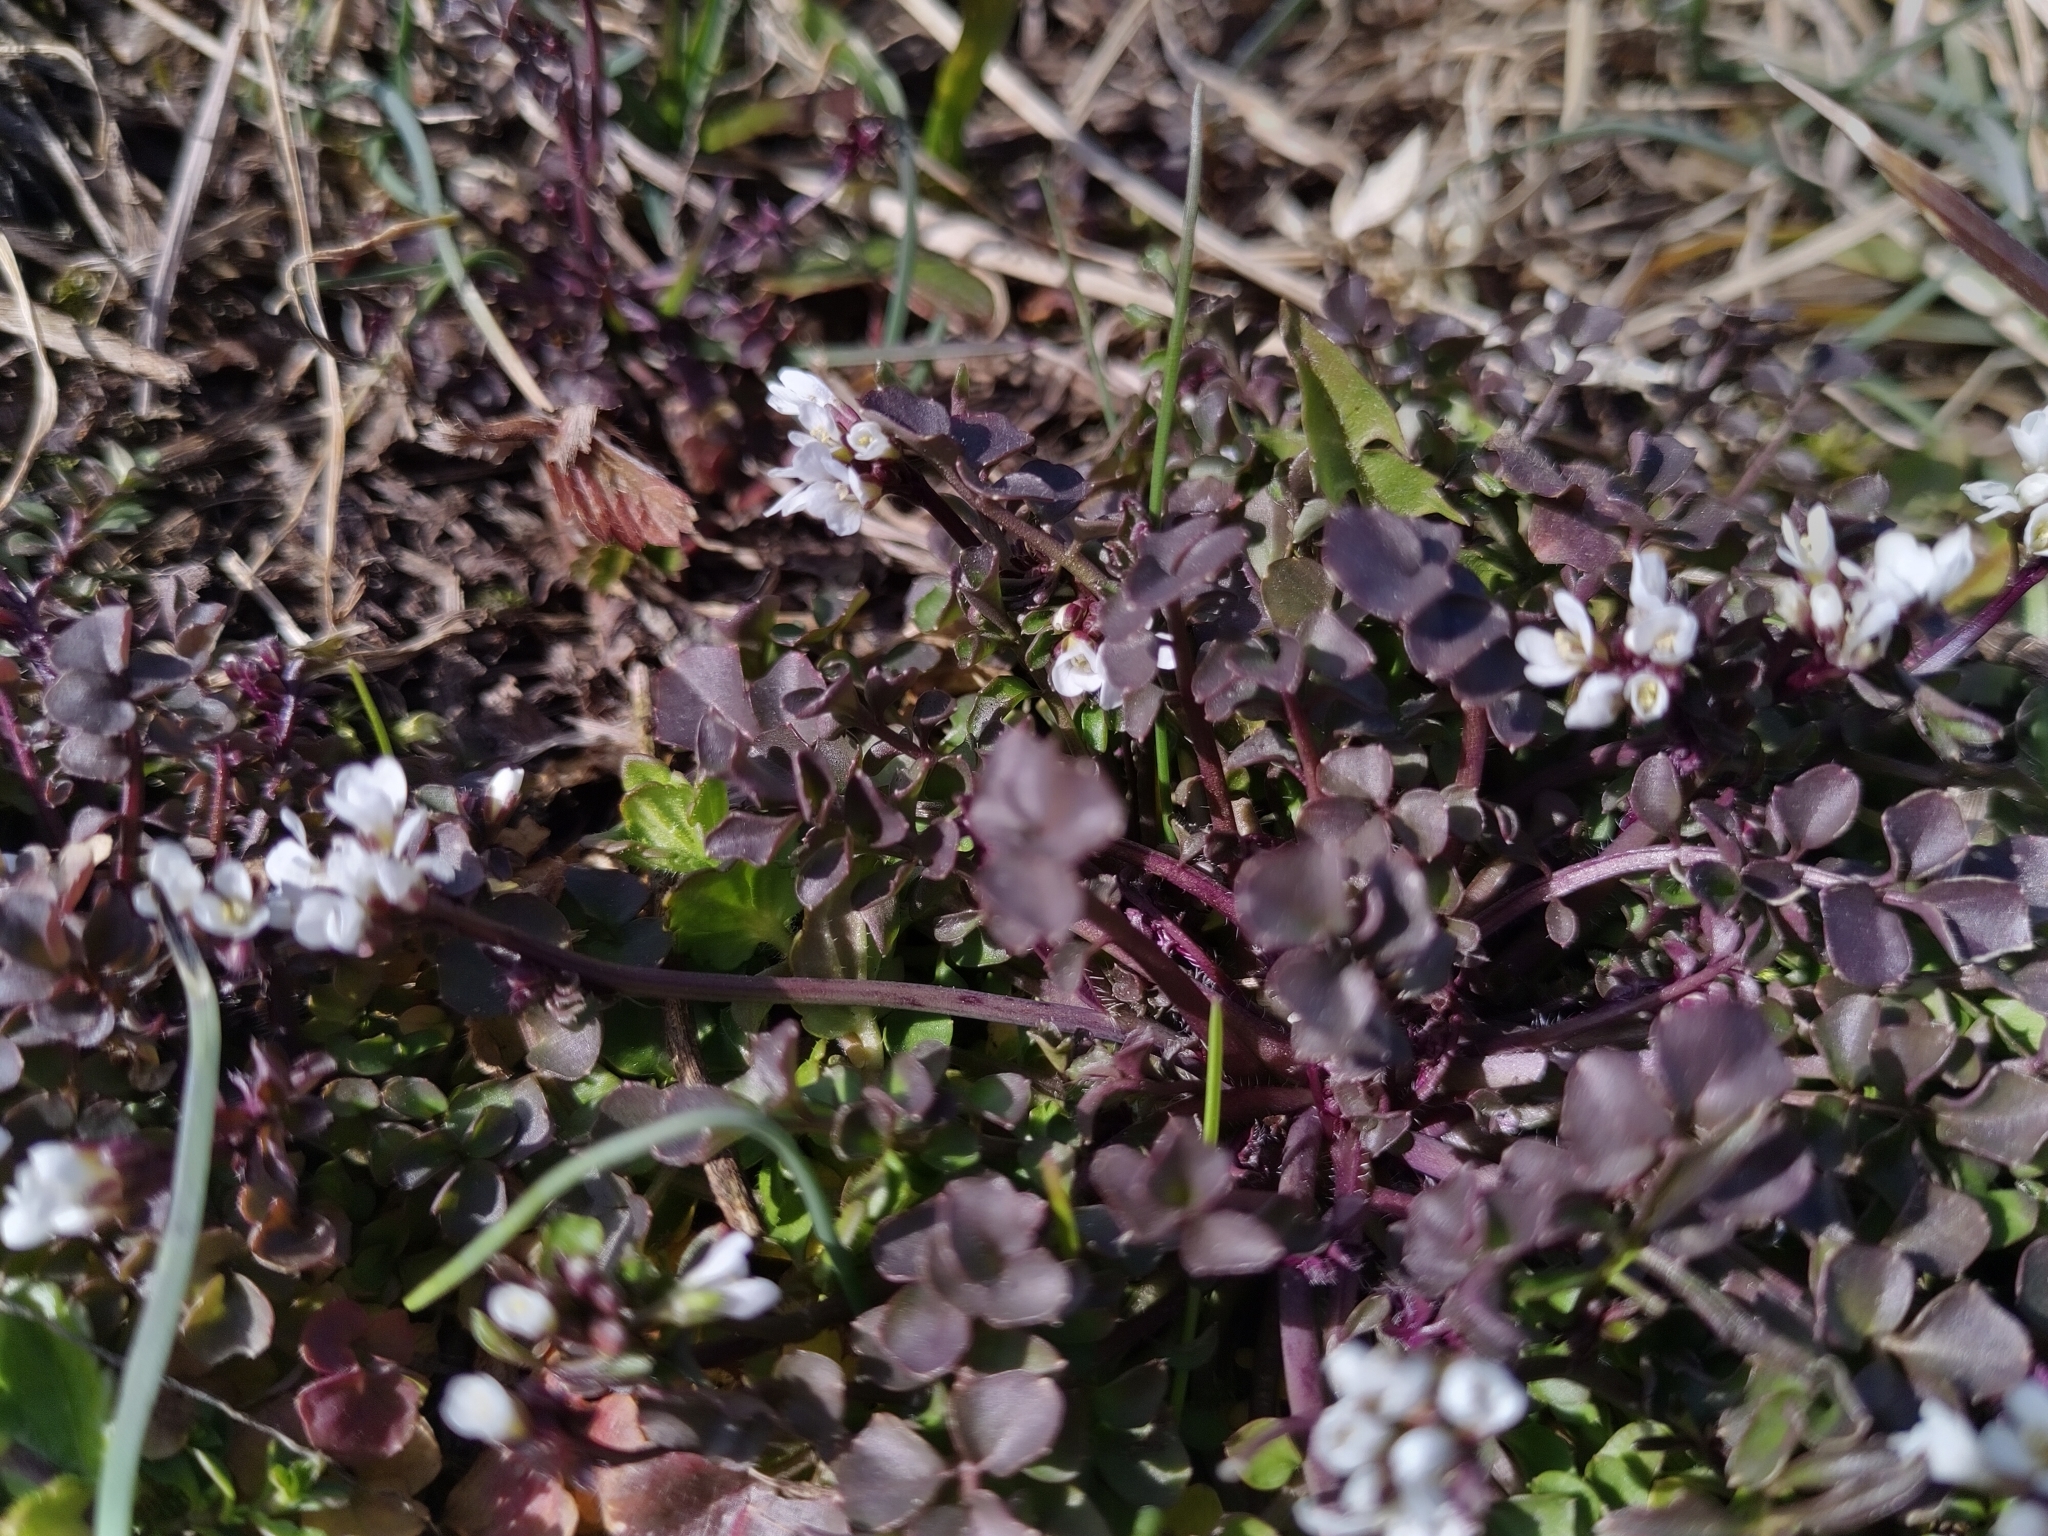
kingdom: Plantae
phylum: Tracheophyta
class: Magnoliopsida
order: Brassicales
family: Brassicaceae
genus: Cardamine
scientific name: Cardamine hirsuta
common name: Hairy bittercress
